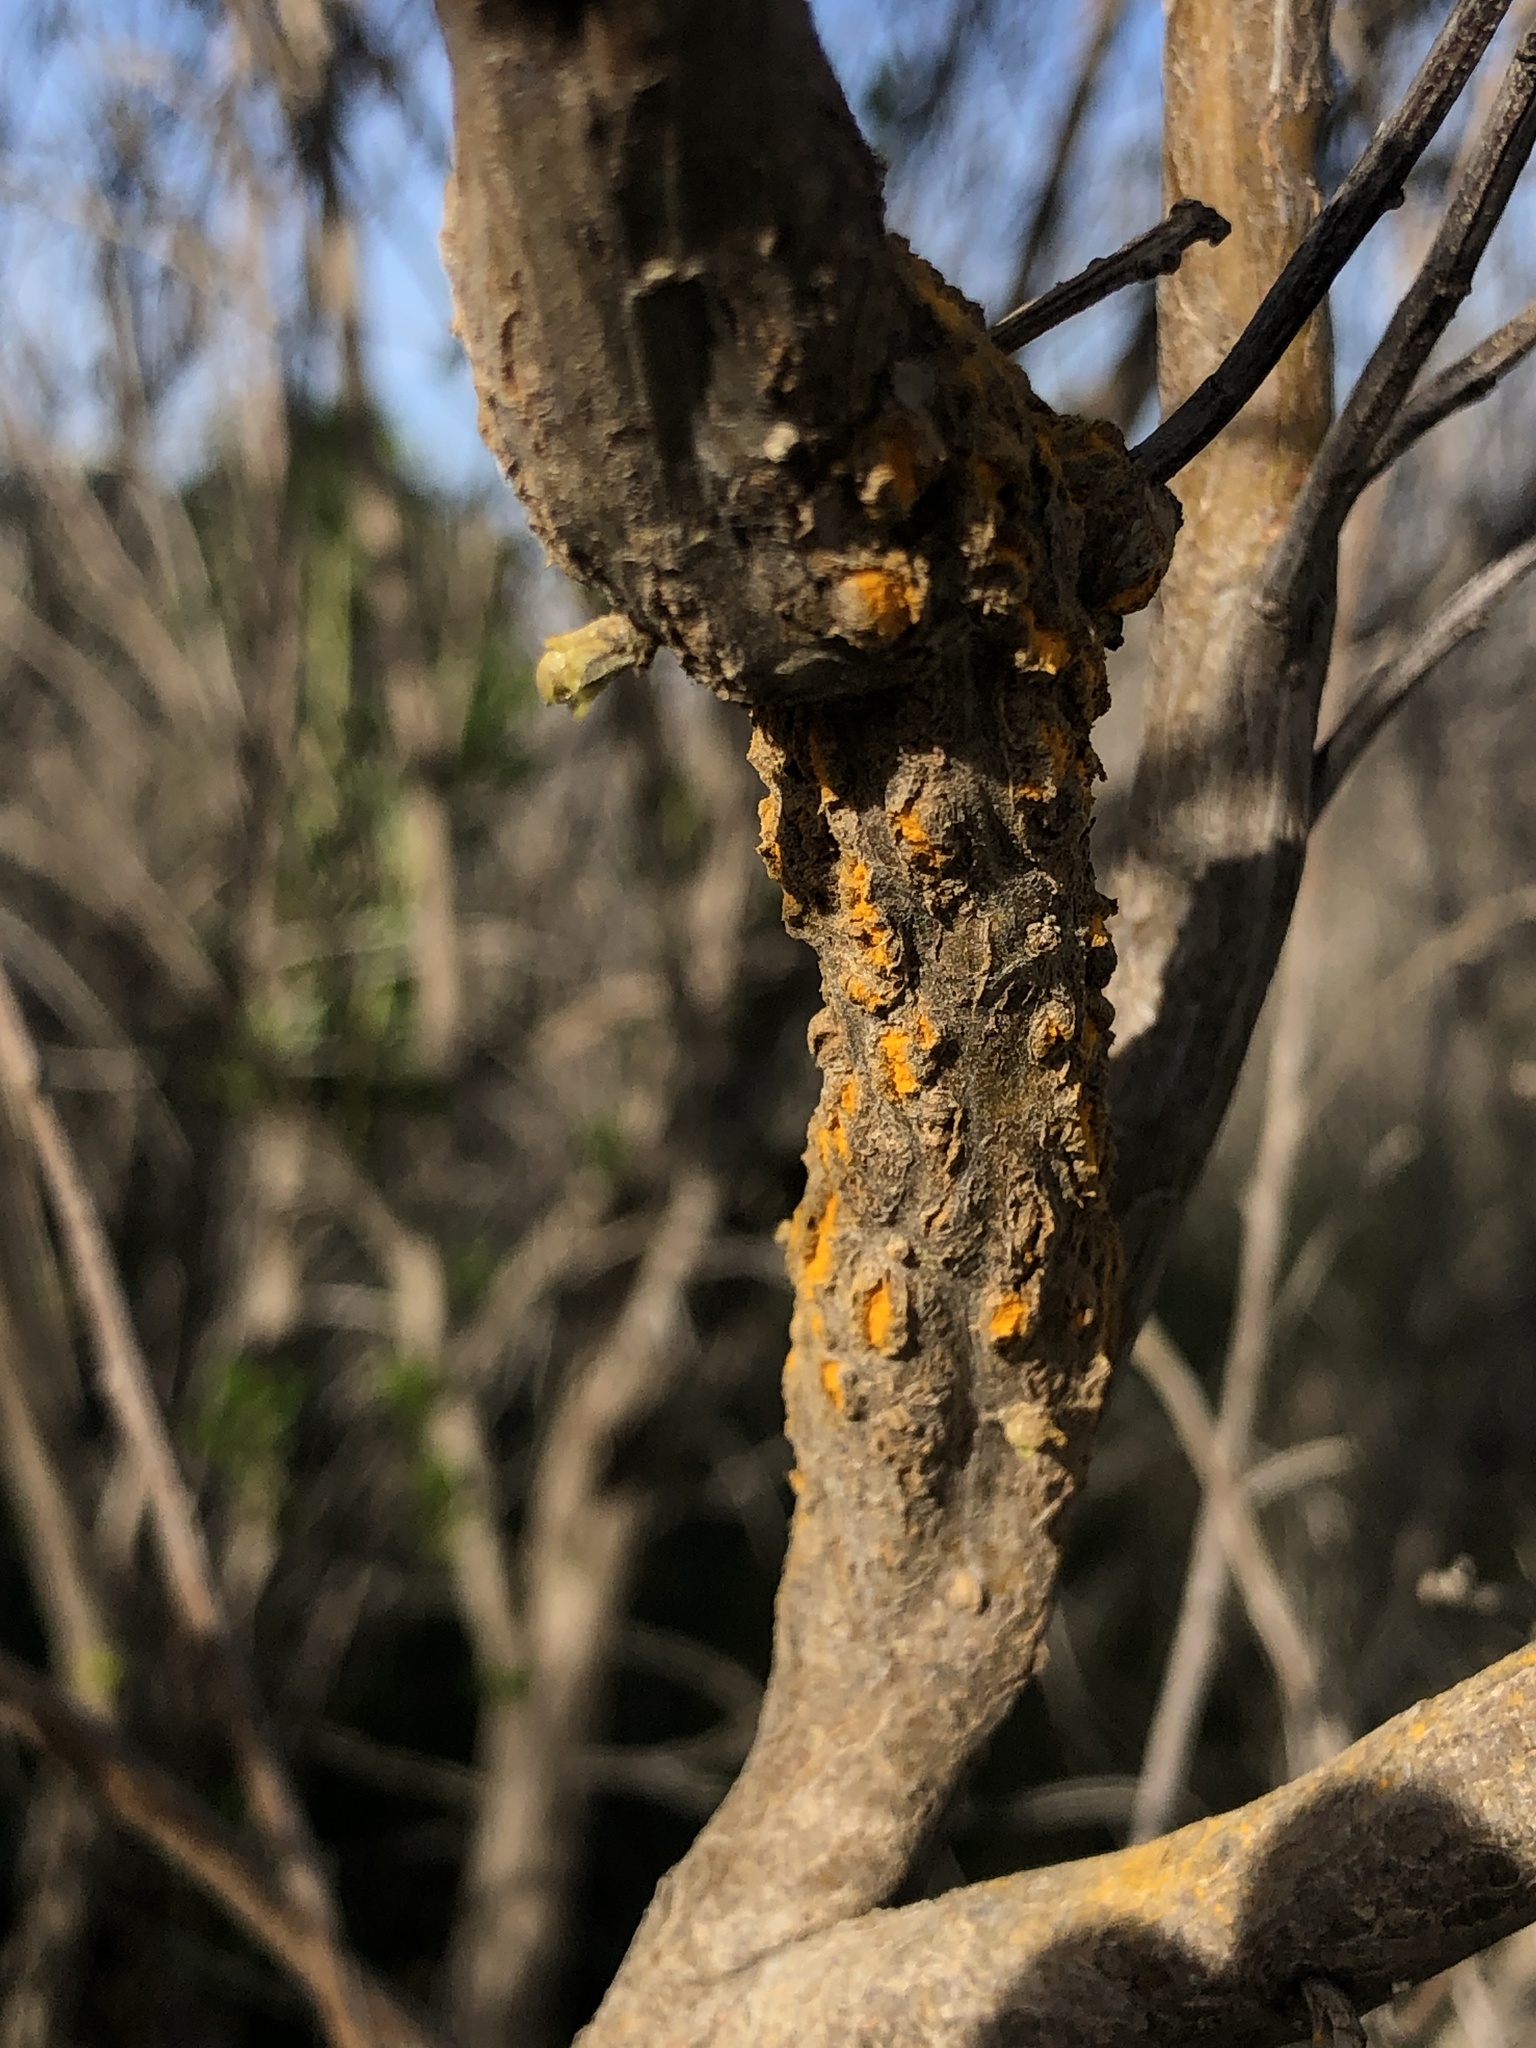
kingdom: Fungi
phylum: Basidiomycota
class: Pucciniomycetes
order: Pucciniales
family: Pucciniaceae
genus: Eriosporangium
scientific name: Eriosporangium evadens
